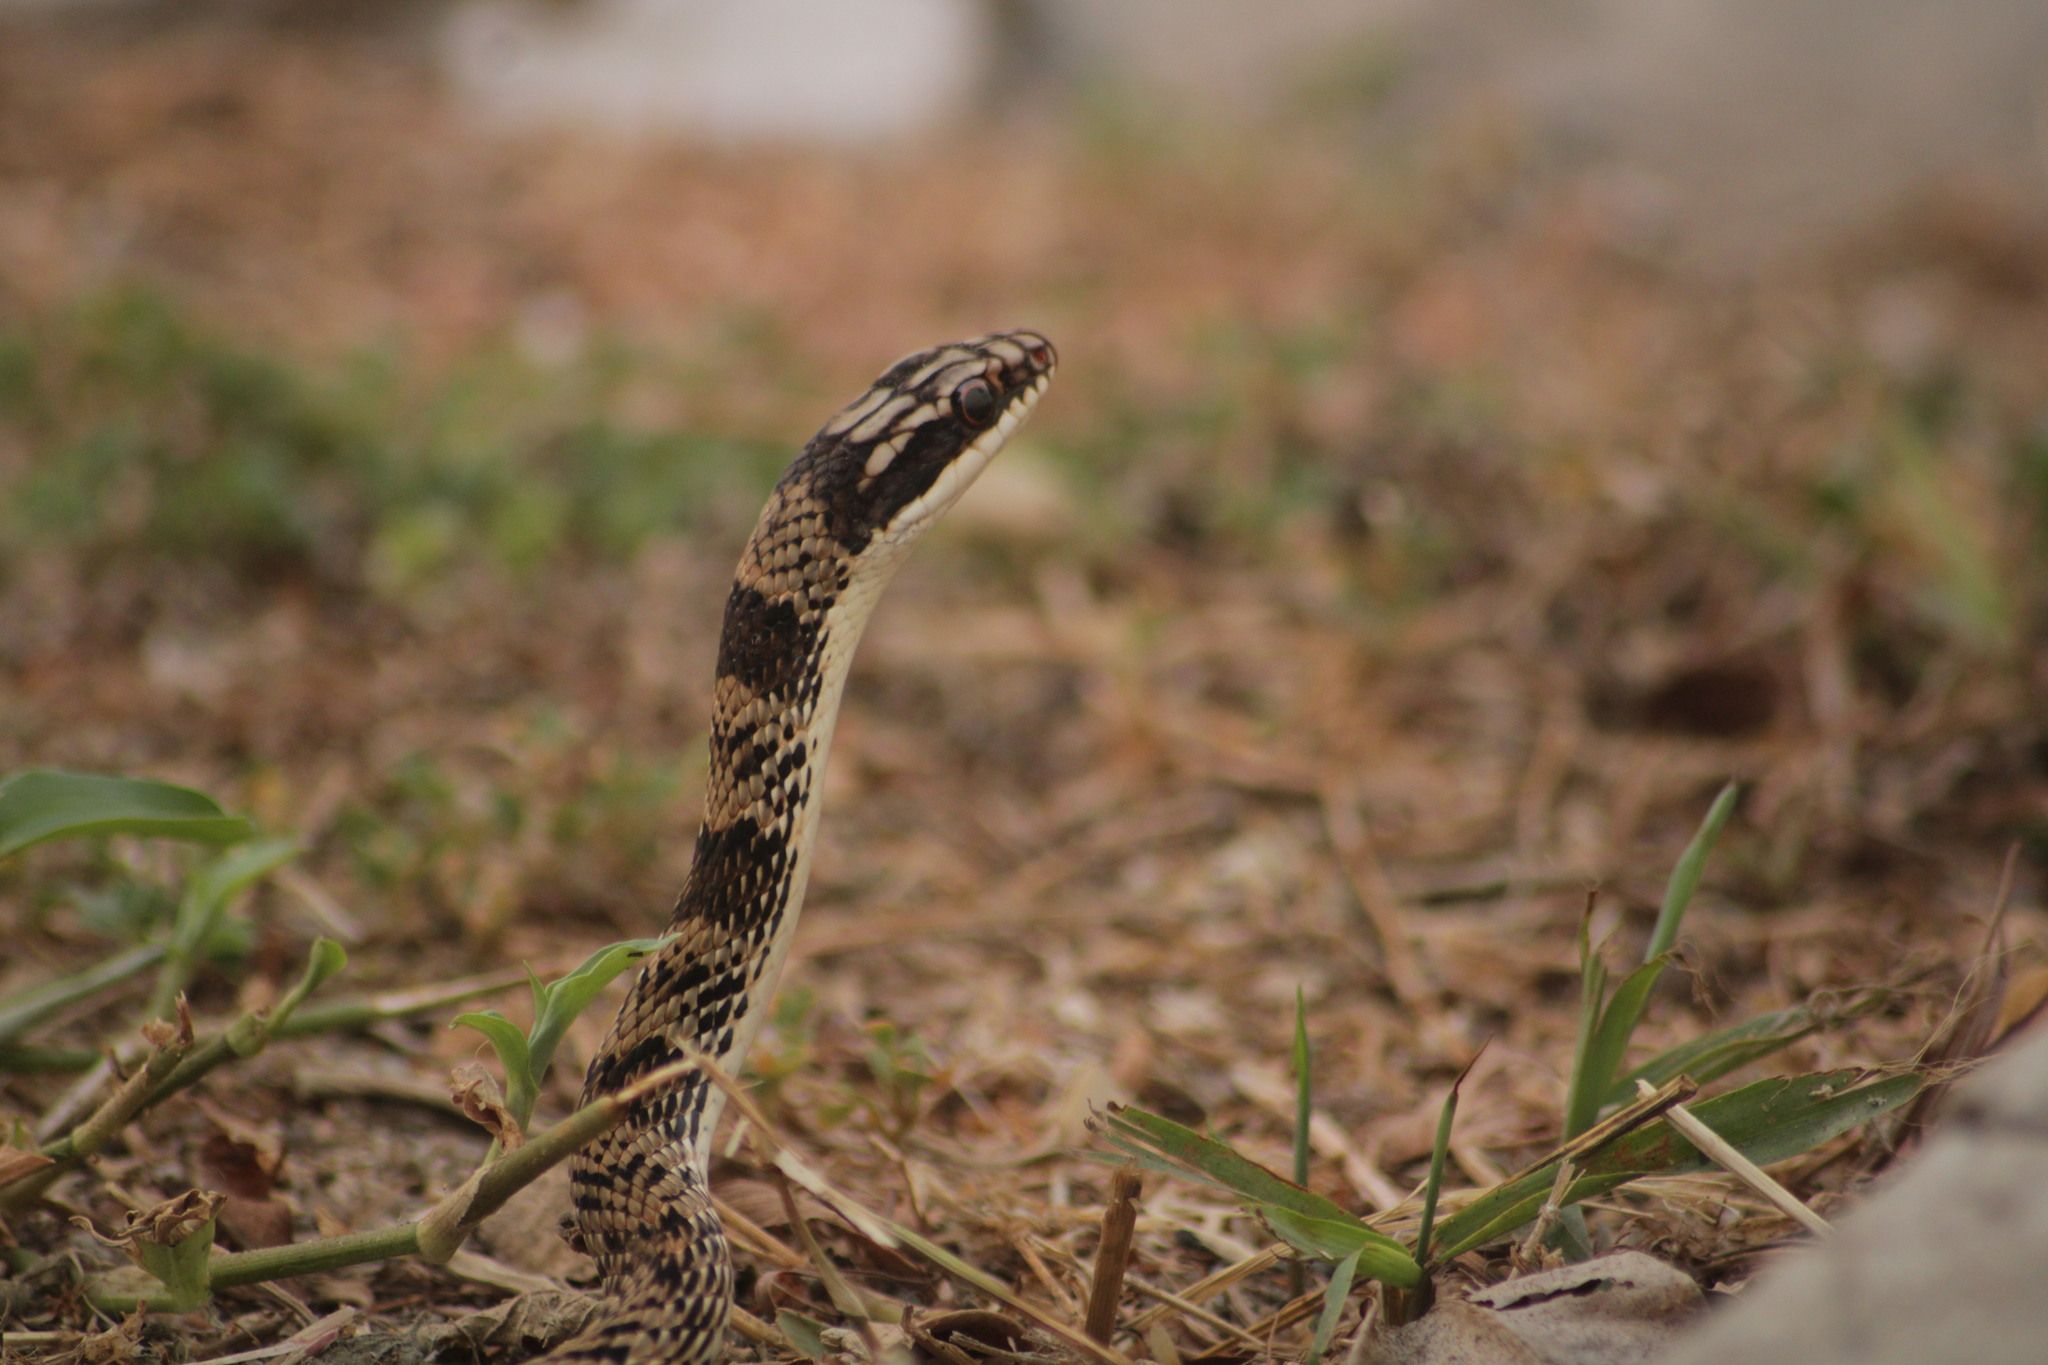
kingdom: Animalia
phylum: Chordata
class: Squamata
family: Colubridae
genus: Salvadora
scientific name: Salvadora mexicana
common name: Mexican patchnose snake
